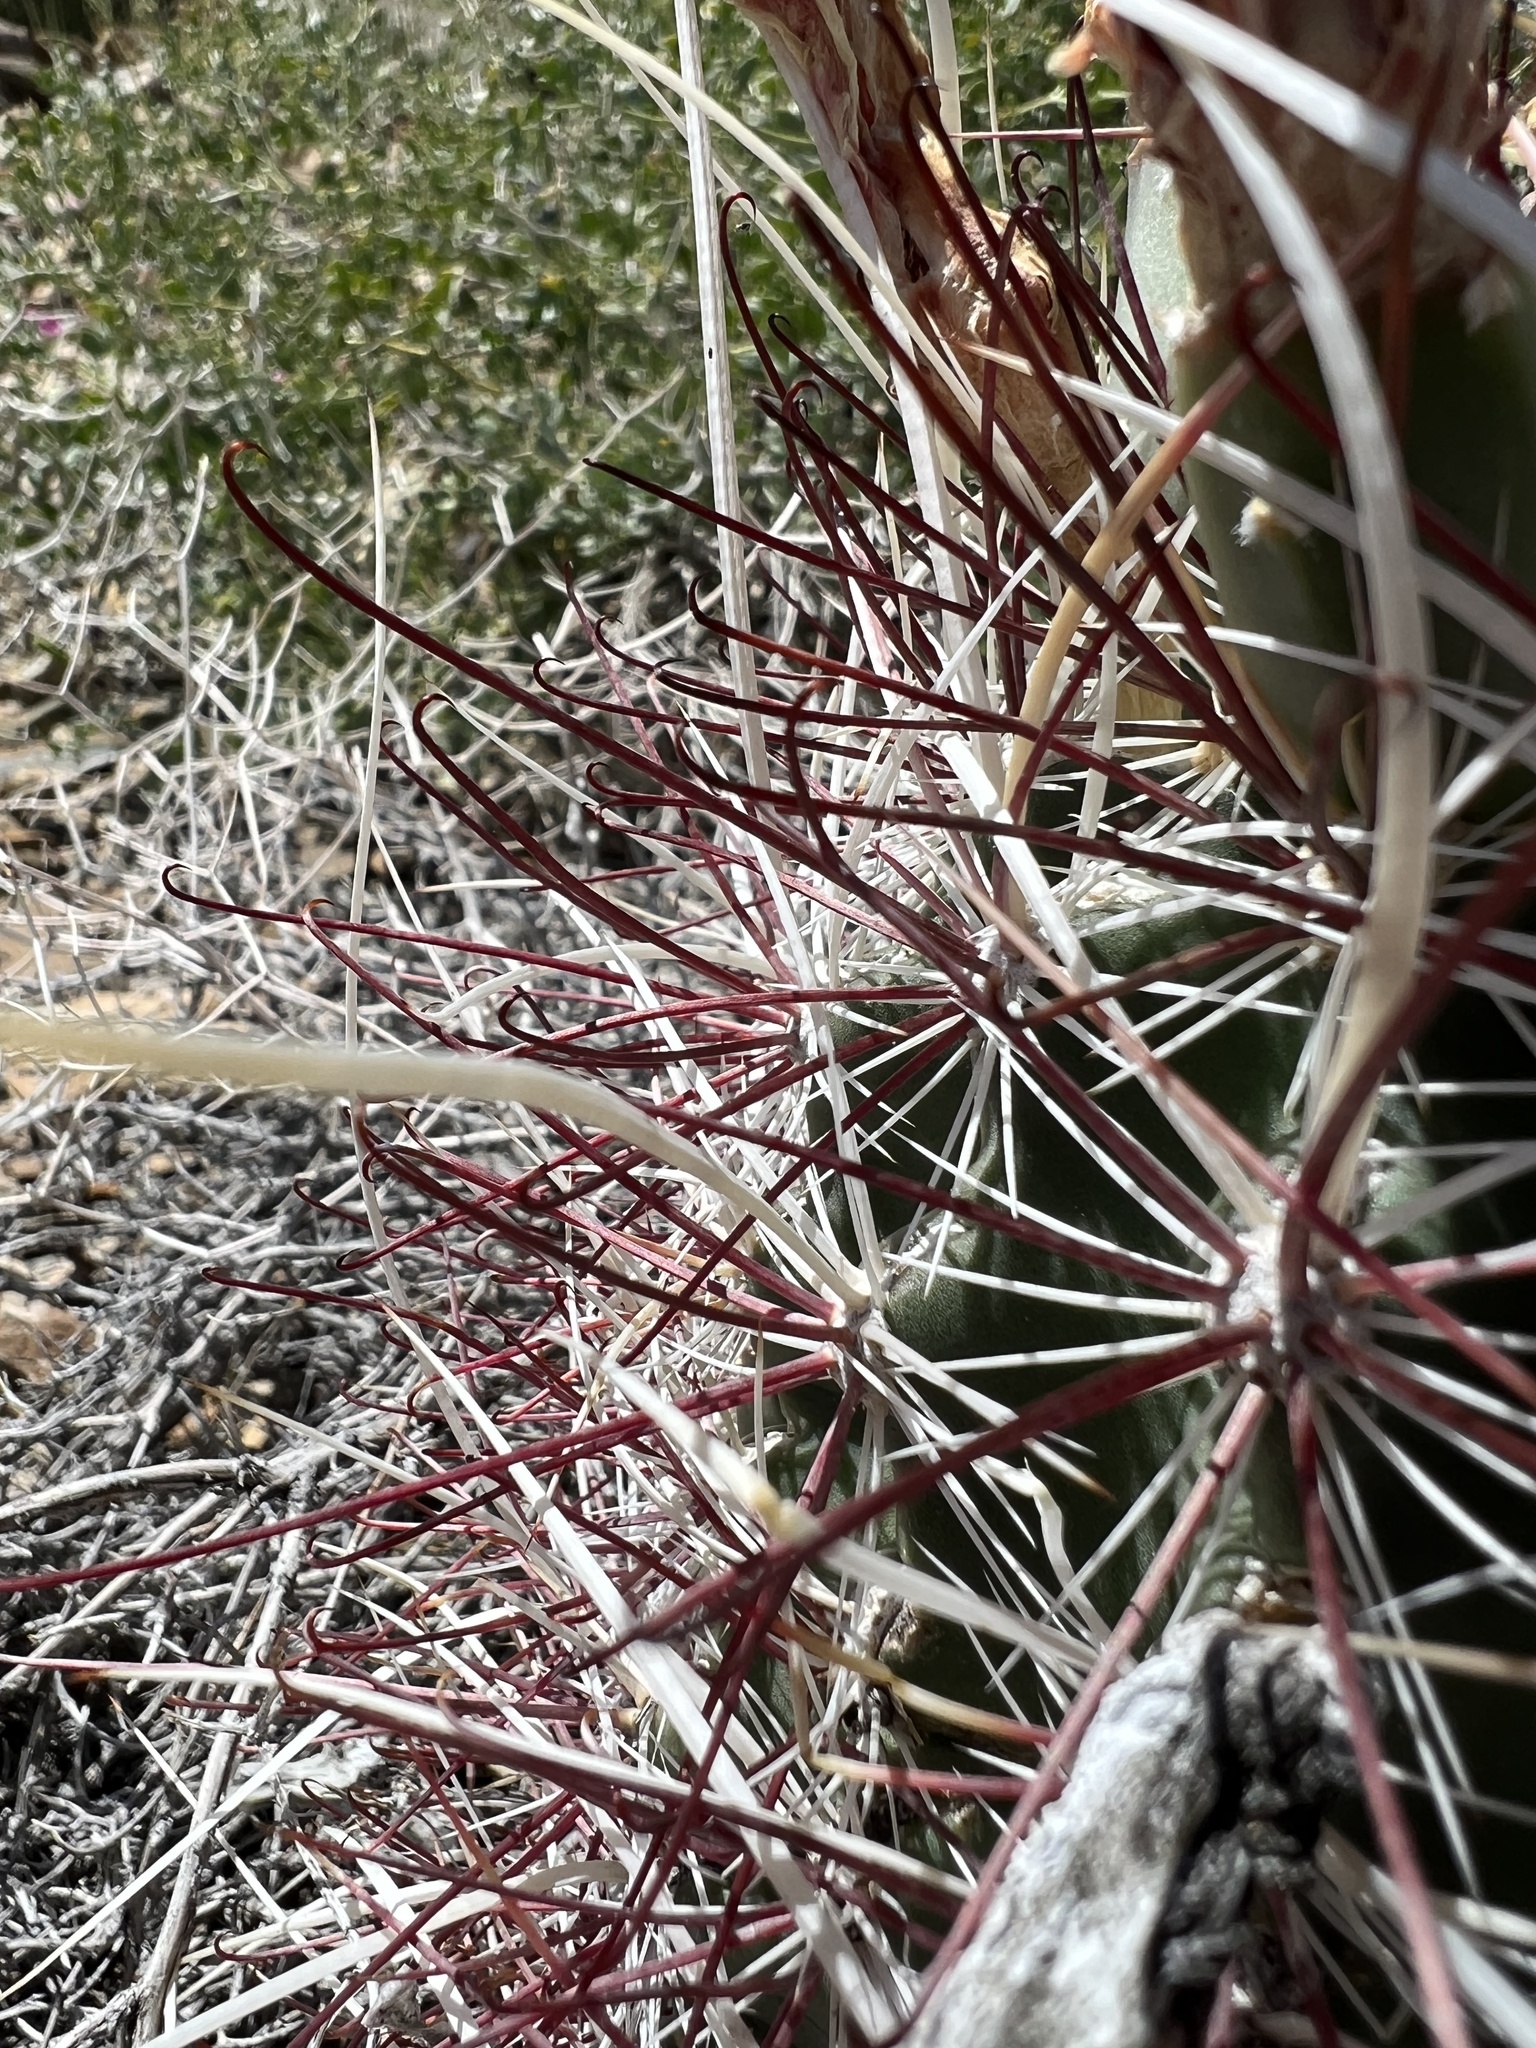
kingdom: Plantae
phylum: Tracheophyta
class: Magnoliopsida
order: Caryophyllales
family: Cactaceae
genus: Sclerocactus
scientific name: Sclerocactus polyancistrus
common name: Mohave fishhook cactus
